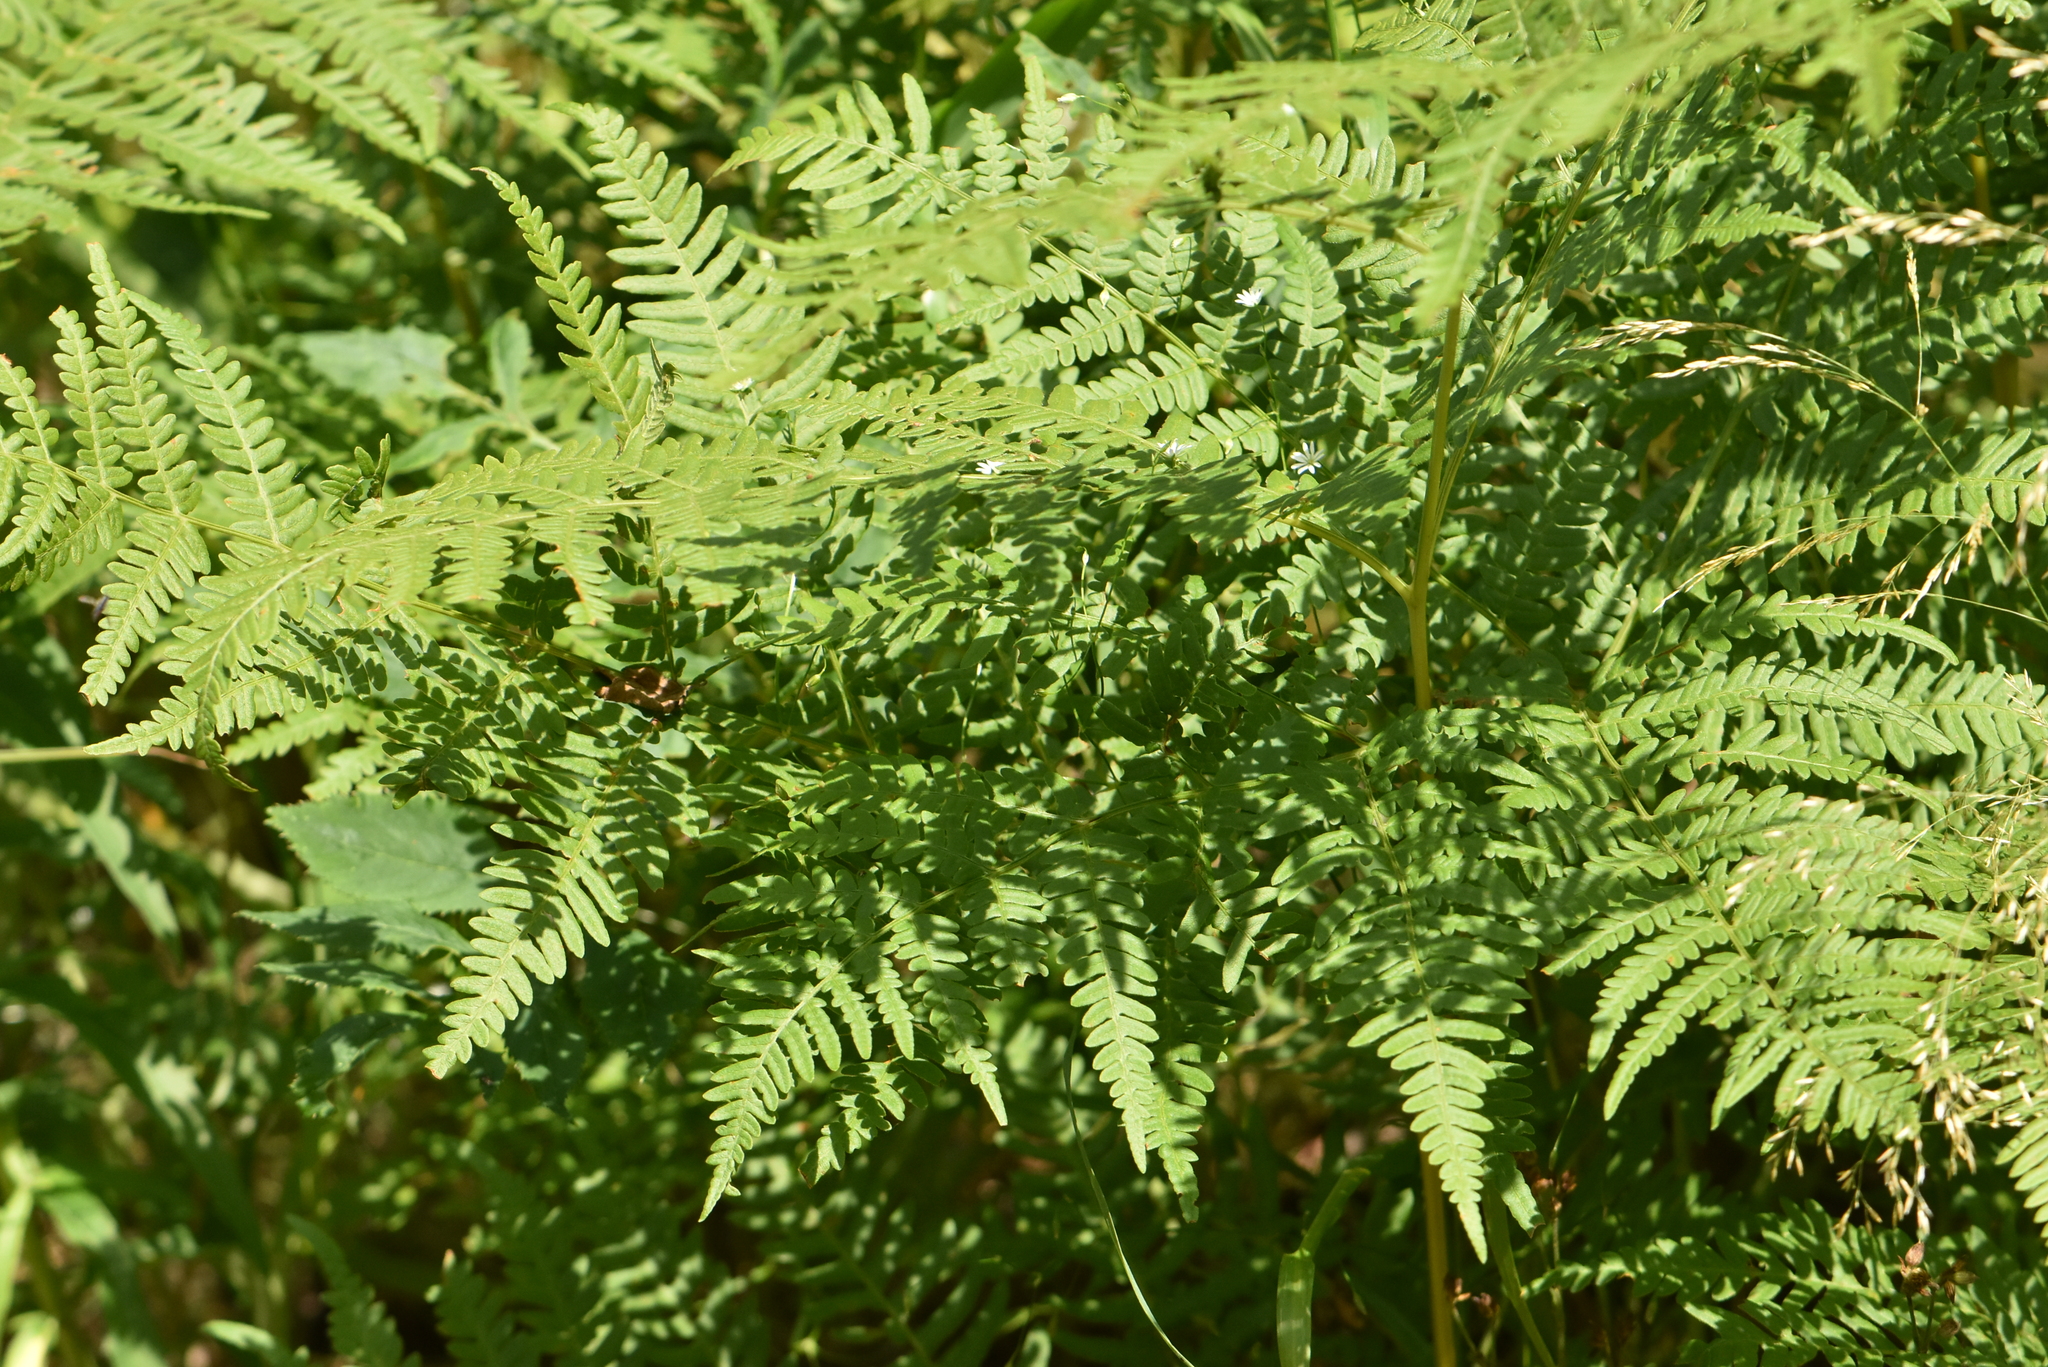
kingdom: Plantae
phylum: Tracheophyta
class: Polypodiopsida
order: Polypodiales
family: Dennstaedtiaceae
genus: Pteridium
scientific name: Pteridium aquilinum
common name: Bracken
